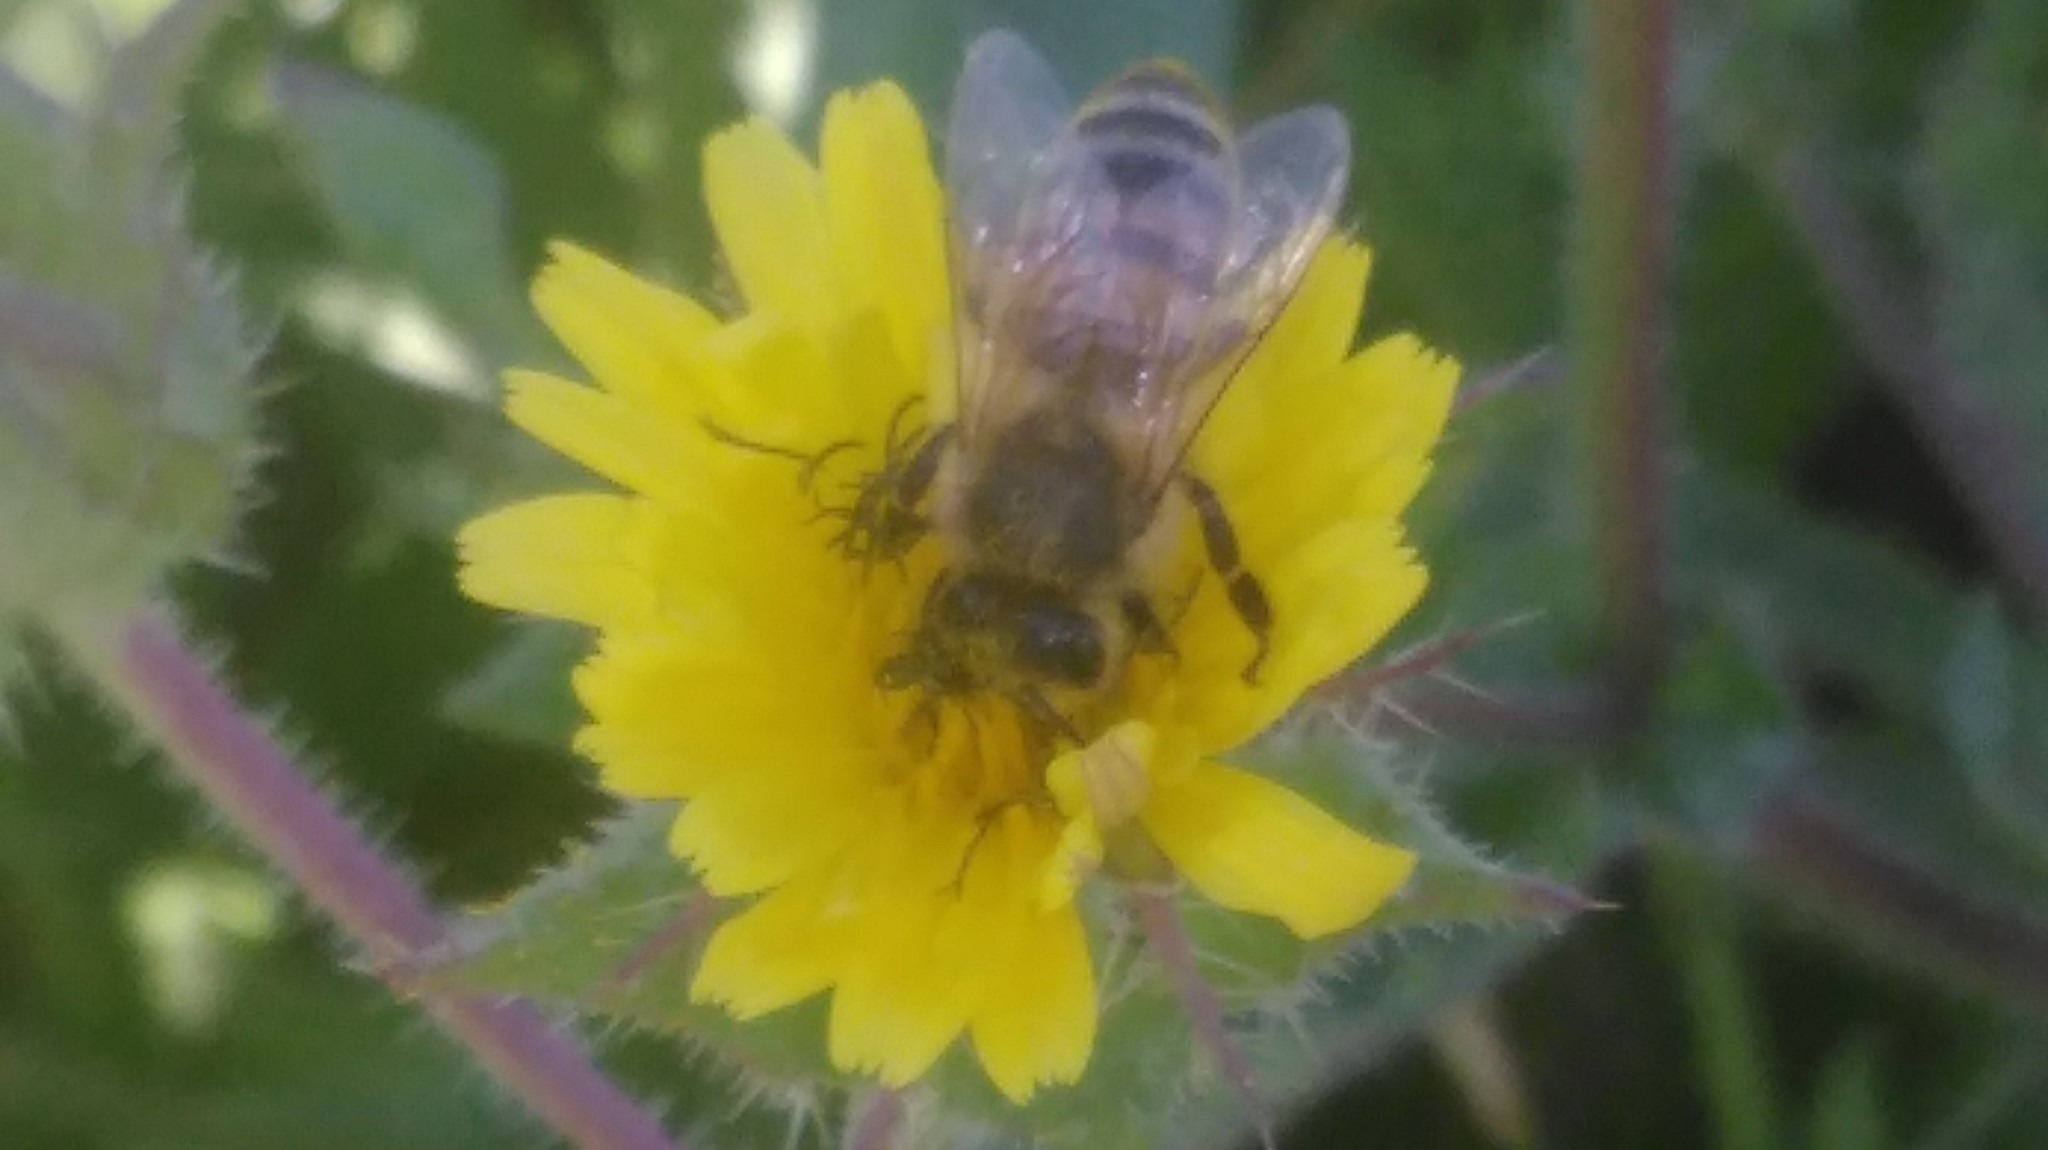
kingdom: Animalia
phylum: Arthropoda
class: Insecta
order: Hymenoptera
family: Apidae
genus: Apis
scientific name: Apis mellifera
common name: Honey bee
